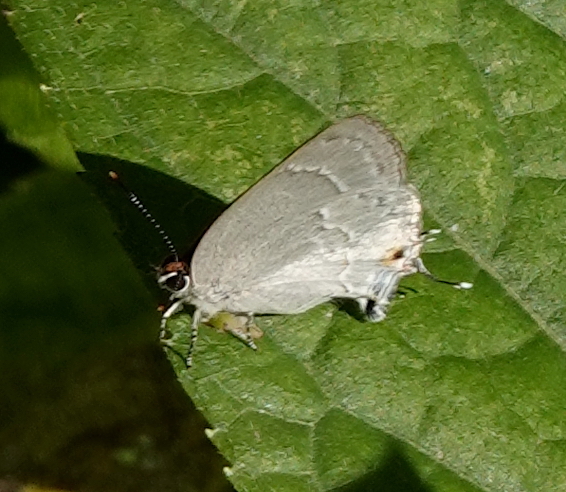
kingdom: Animalia
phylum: Arthropoda
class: Insecta
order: Lepidoptera
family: Lycaenidae
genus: Ostrinotes
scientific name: Ostrinotes
